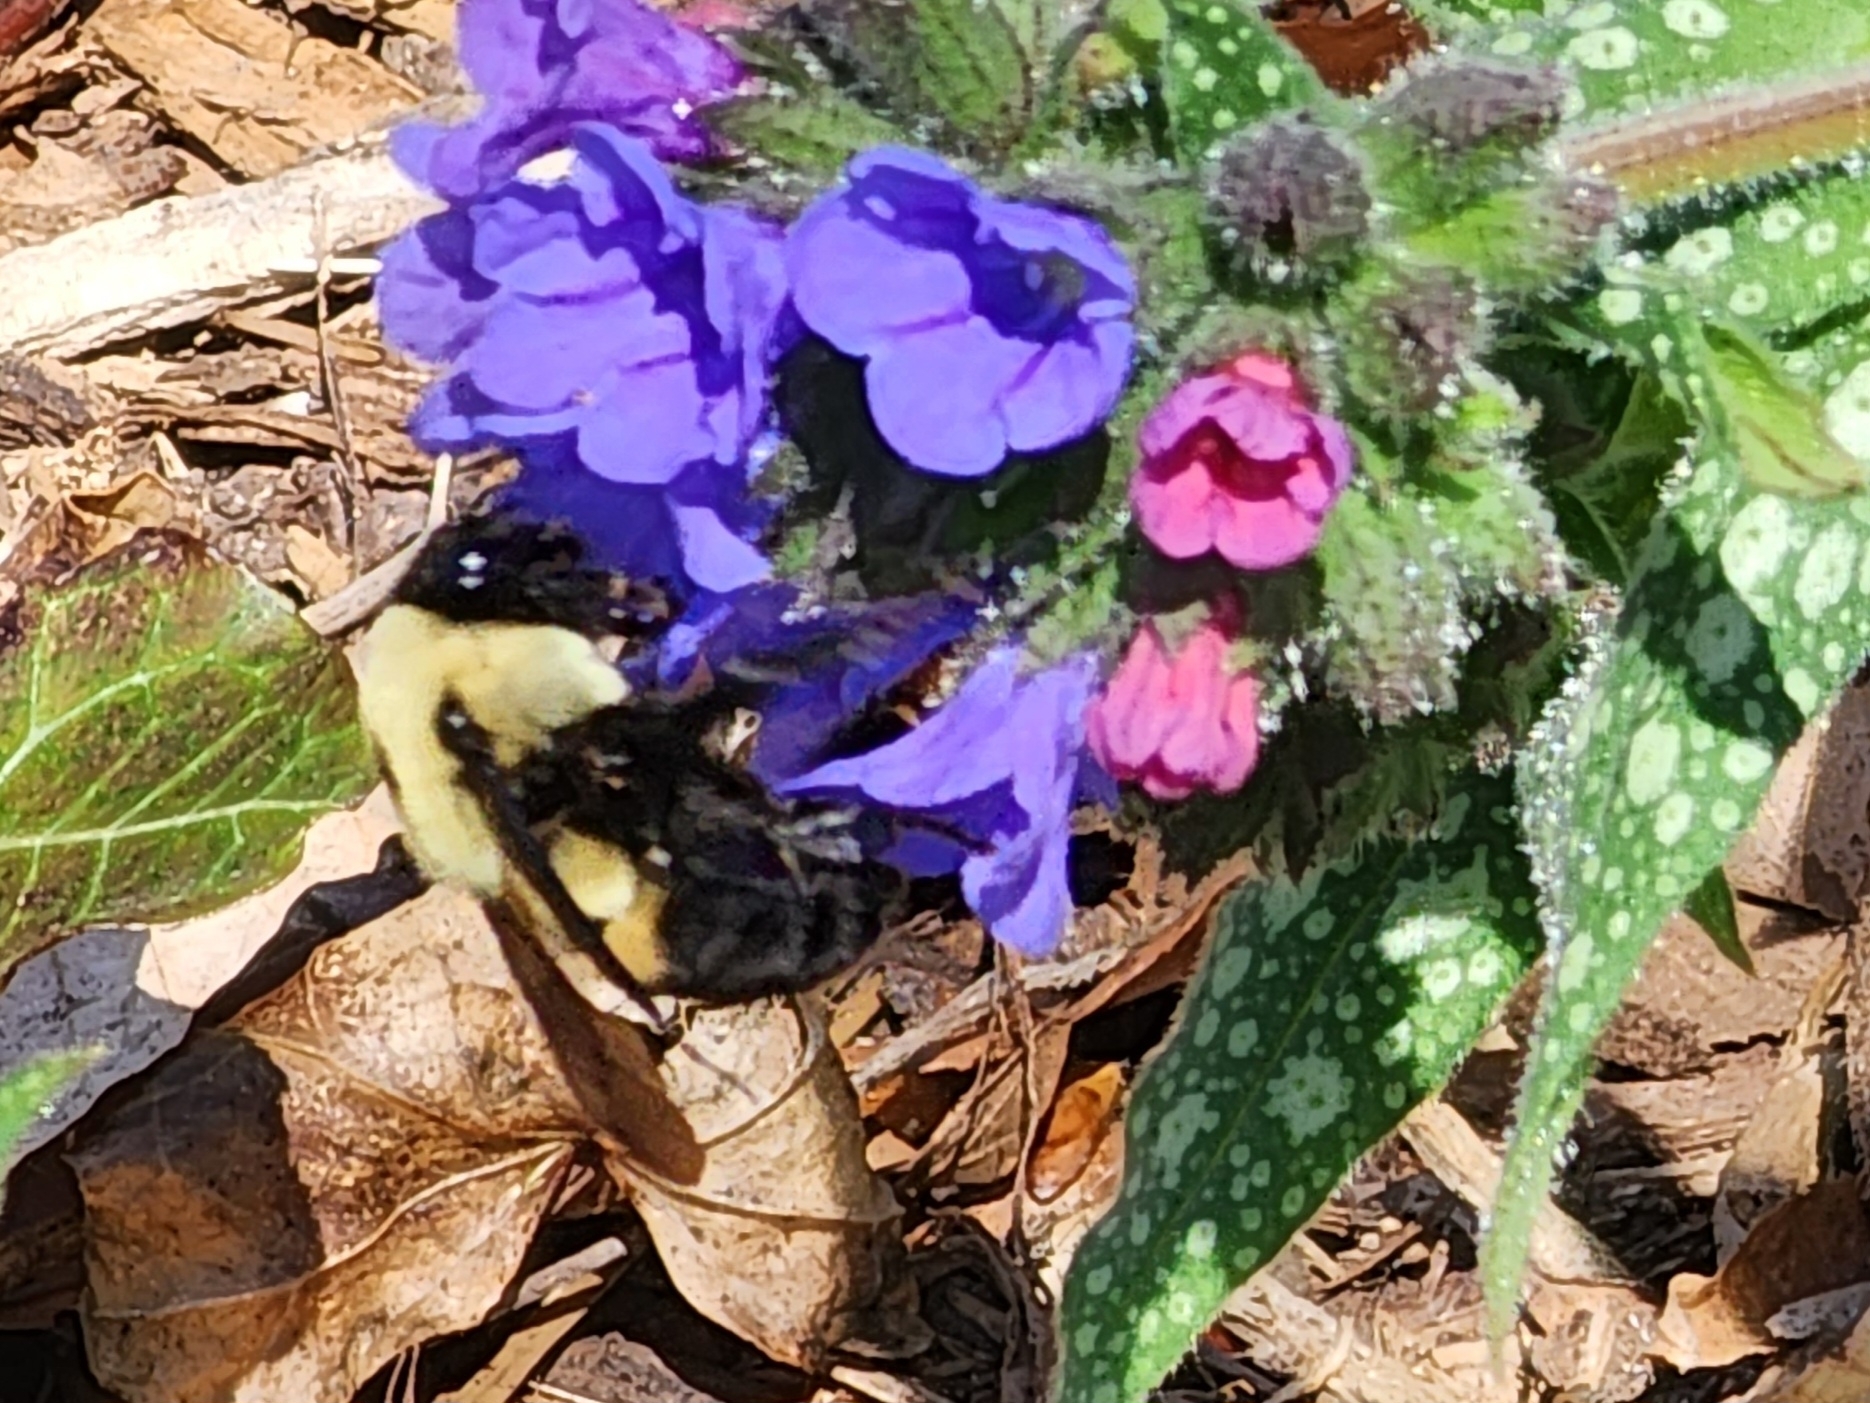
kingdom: Animalia
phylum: Arthropoda
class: Insecta
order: Hymenoptera
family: Apidae
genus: Bombus
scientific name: Bombus griseocollis
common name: Brown-belted bumble bee
